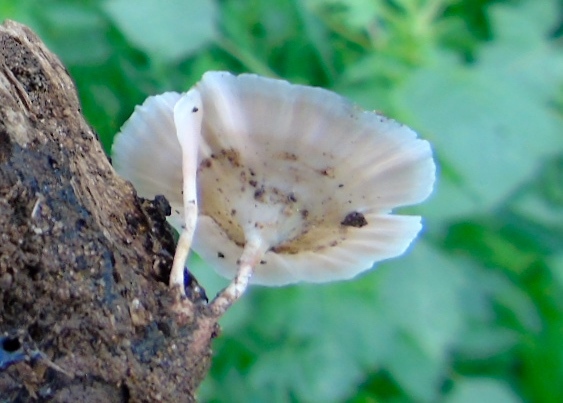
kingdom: Fungi
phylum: Basidiomycota
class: Agaricomycetes
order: Hymenochaetales
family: Rickenellaceae
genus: Cotylidia
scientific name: Cotylidia
